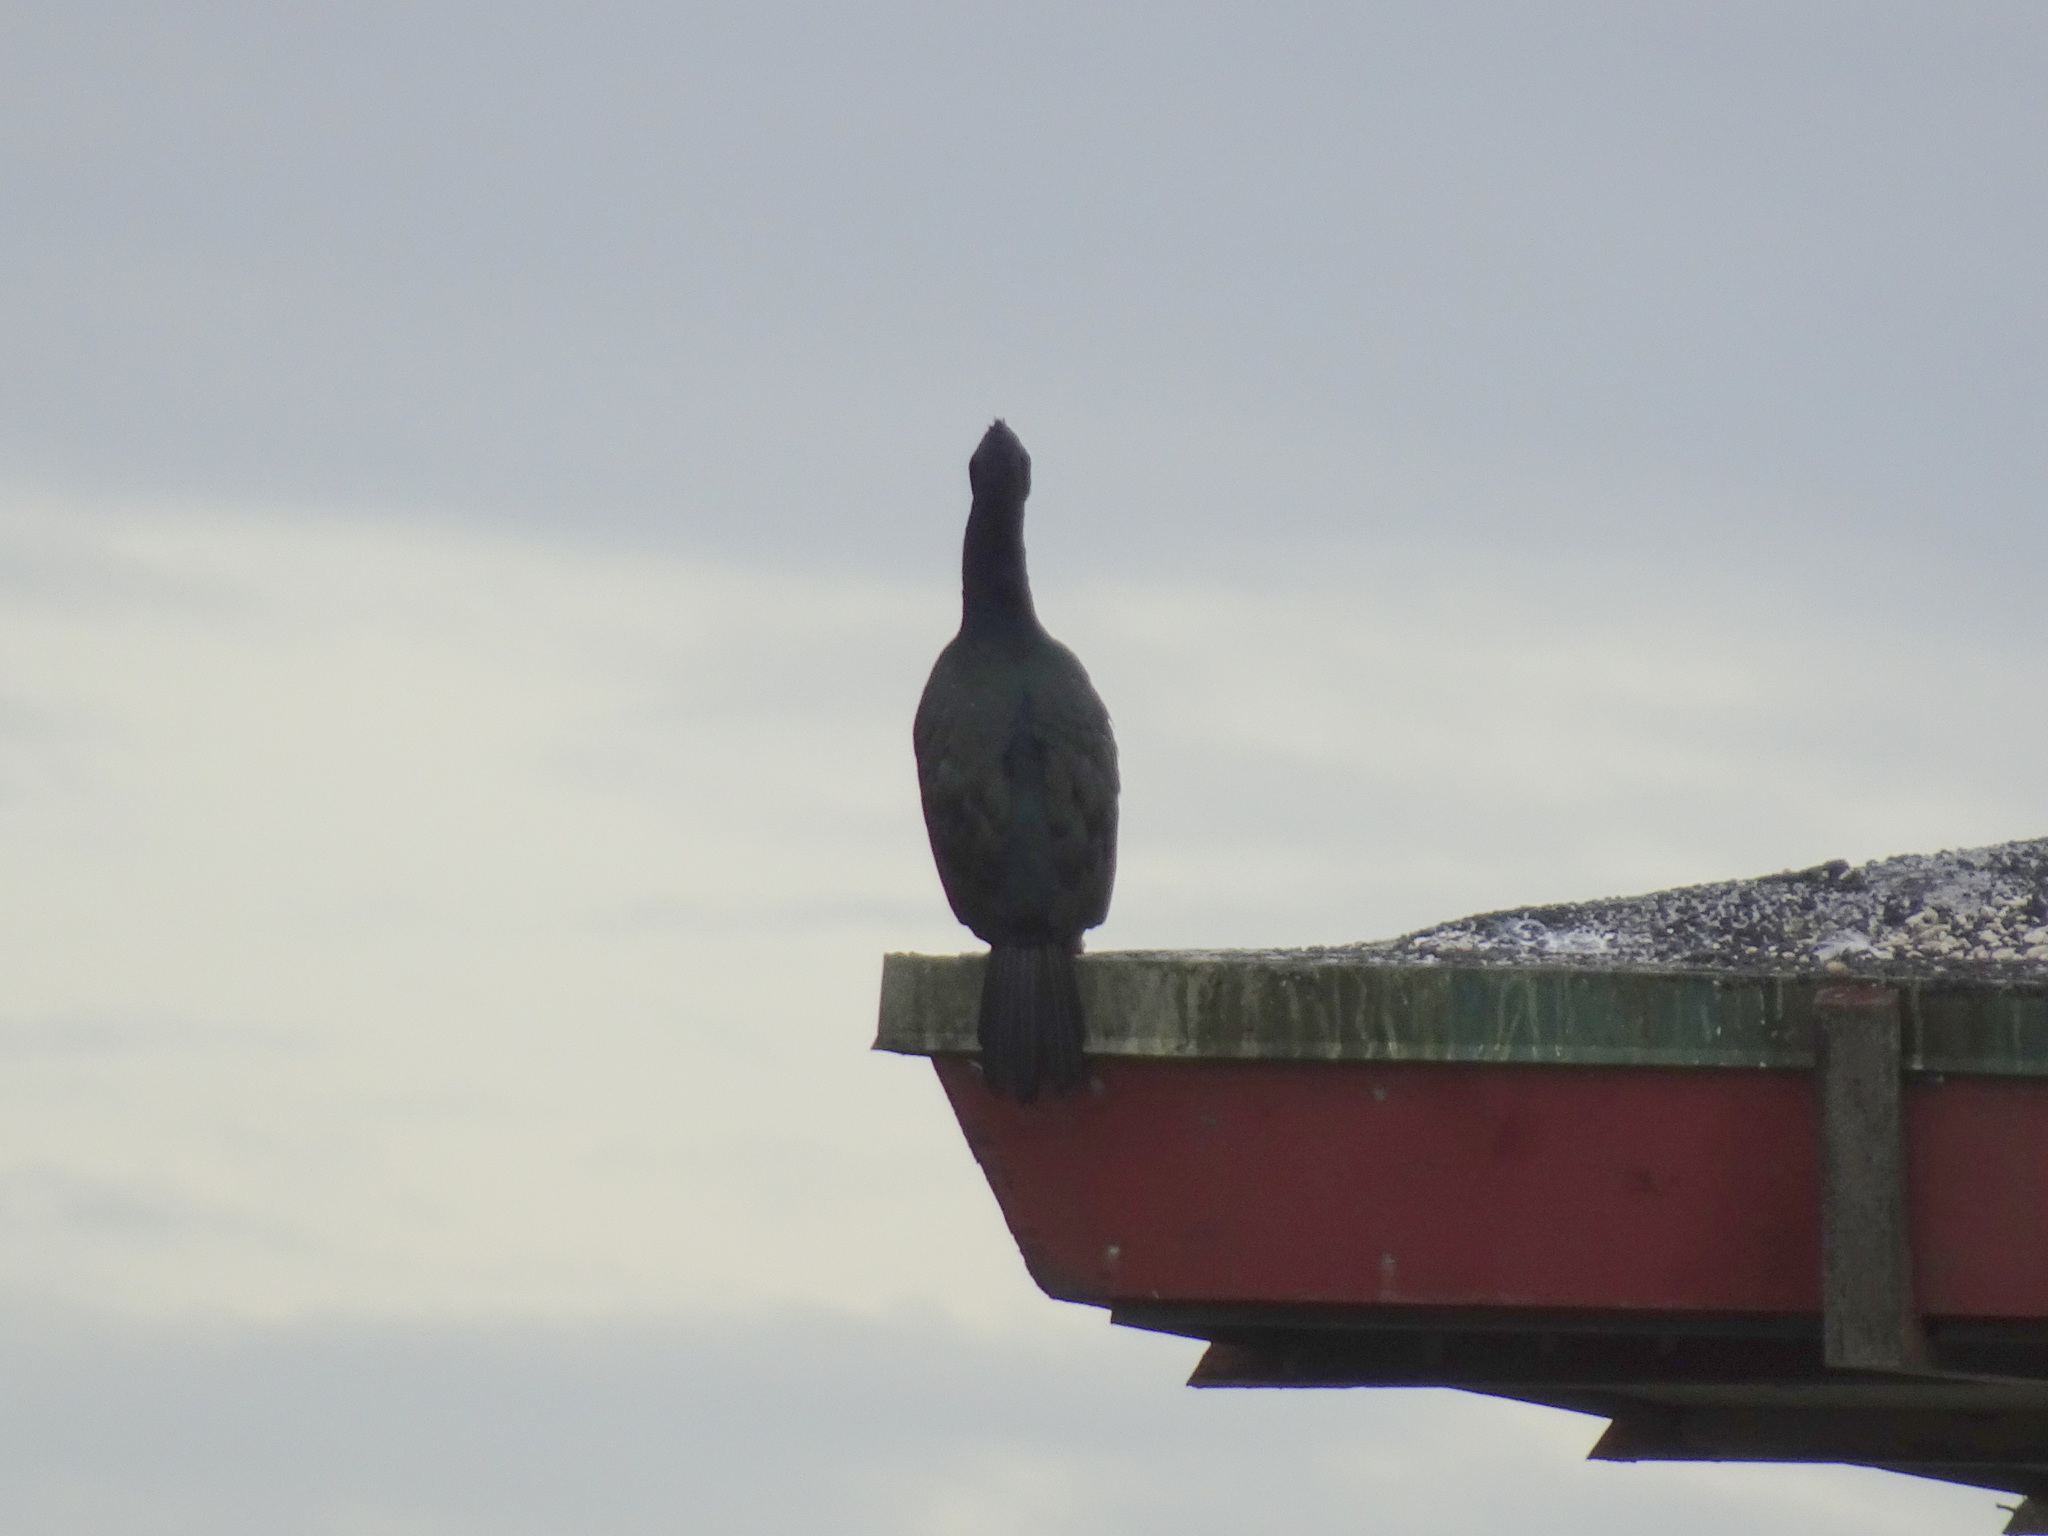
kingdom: Animalia
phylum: Chordata
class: Aves
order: Suliformes
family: Phalacrocoracidae
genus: Phalacrocorax
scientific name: Phalacrocorax pelagicus
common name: Pelagic cormorant
